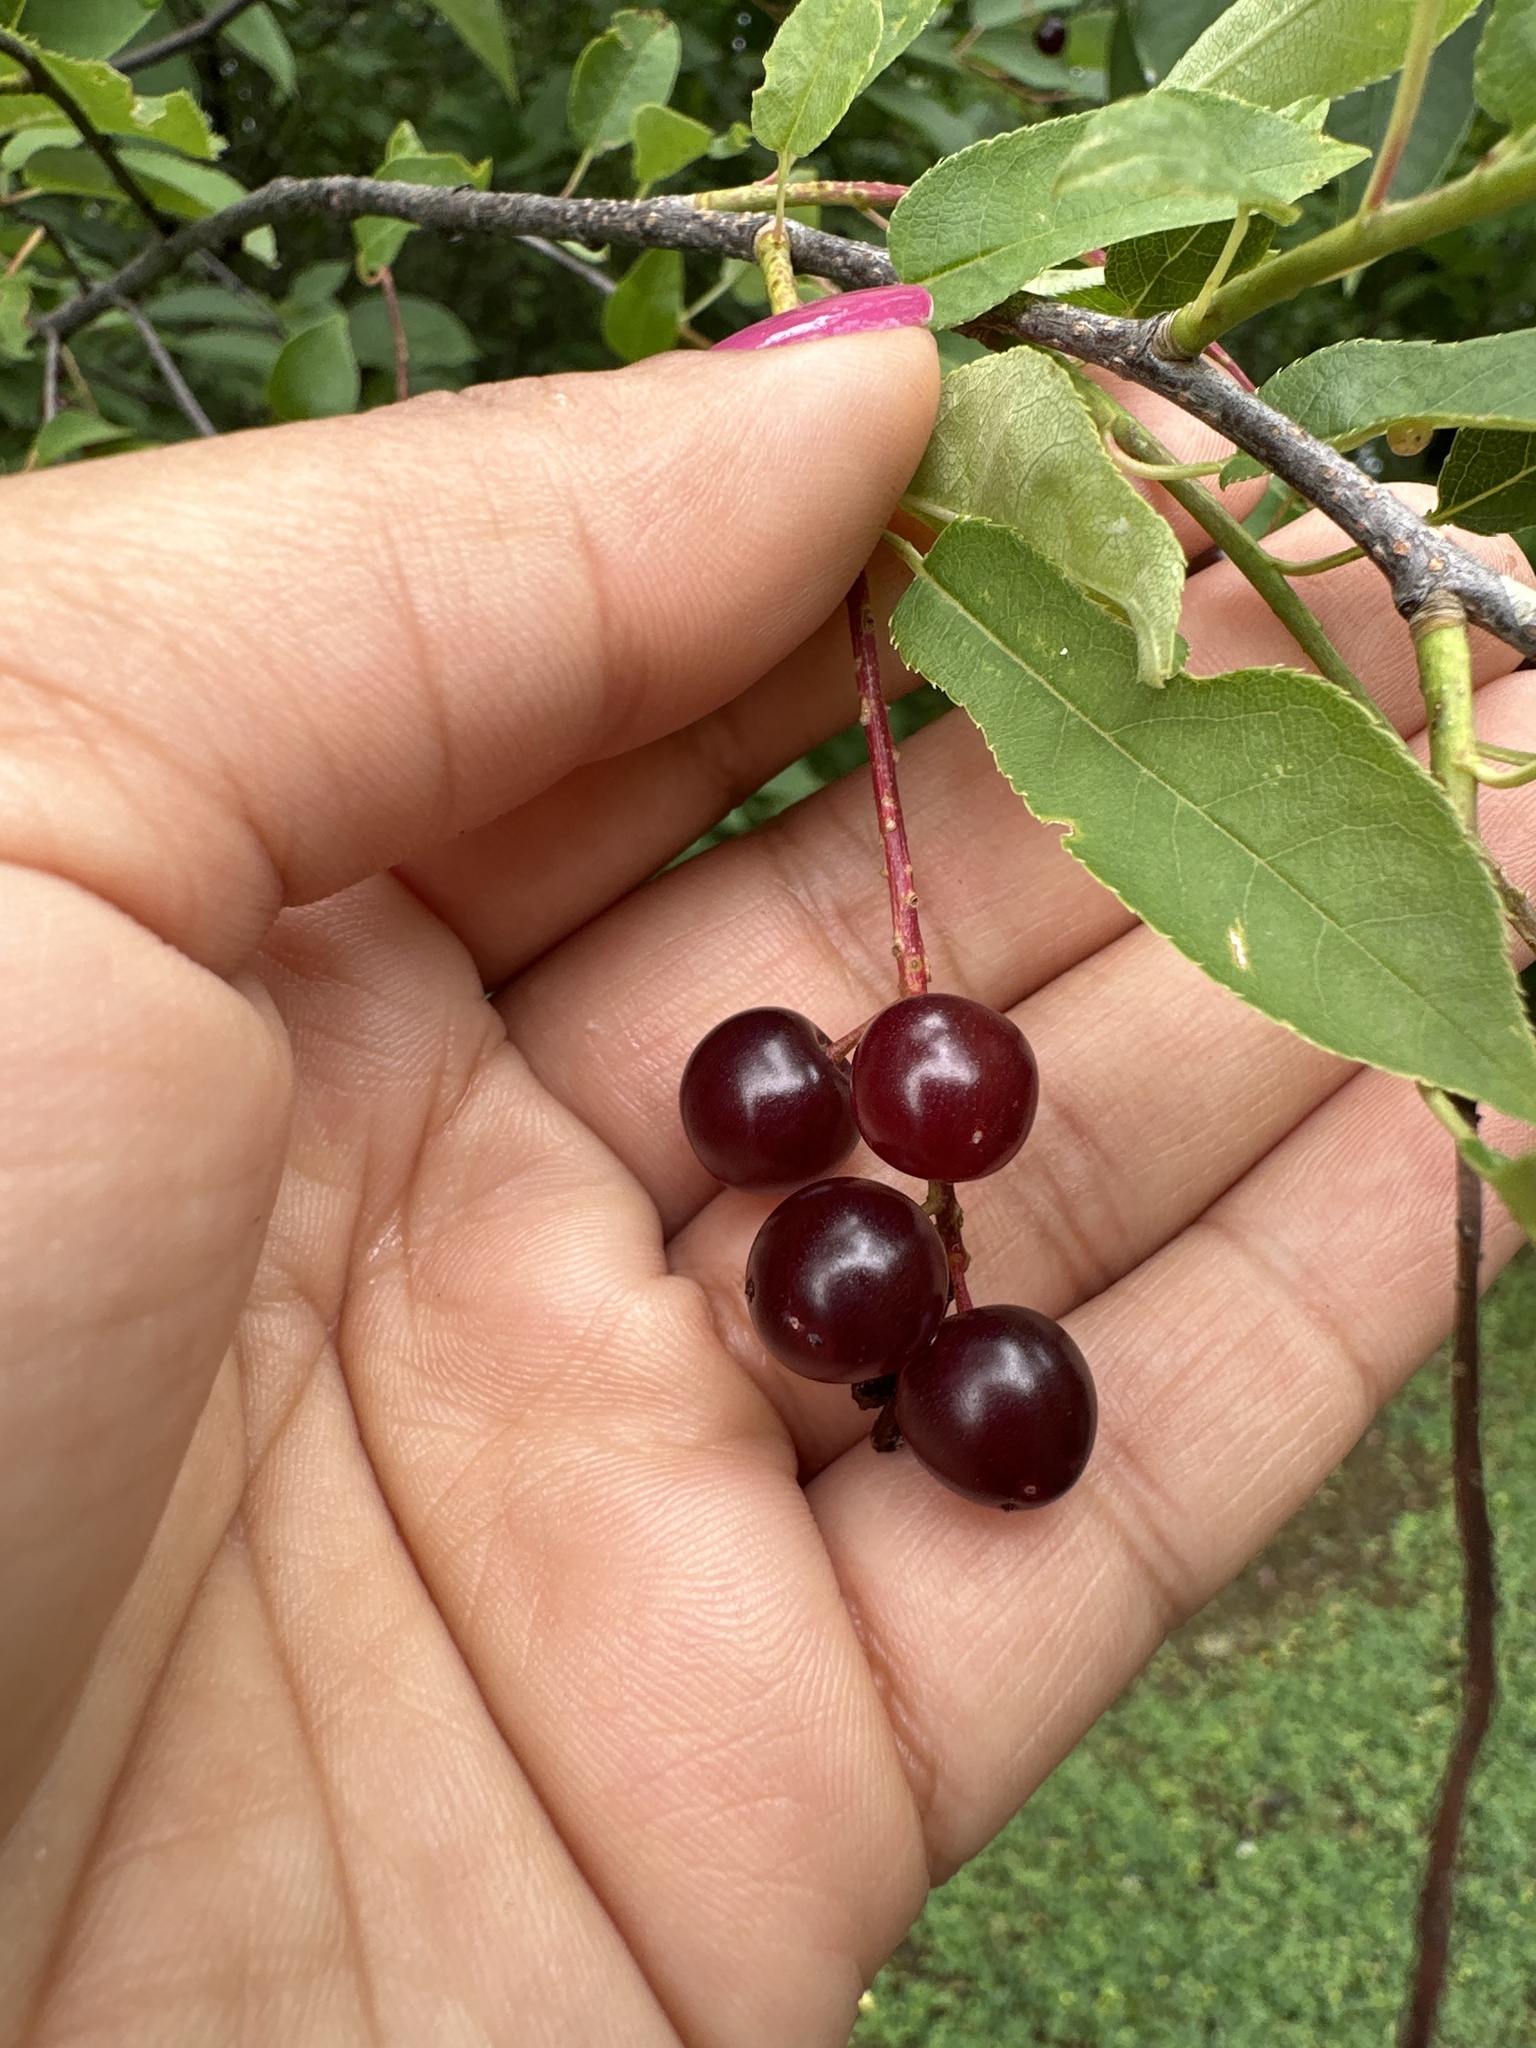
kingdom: Plantae
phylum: Tracheophyta
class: Magnoliopsida
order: Rosales
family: Rosaceae
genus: Prunus
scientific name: Prunus virginiana
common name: Chokecherry
